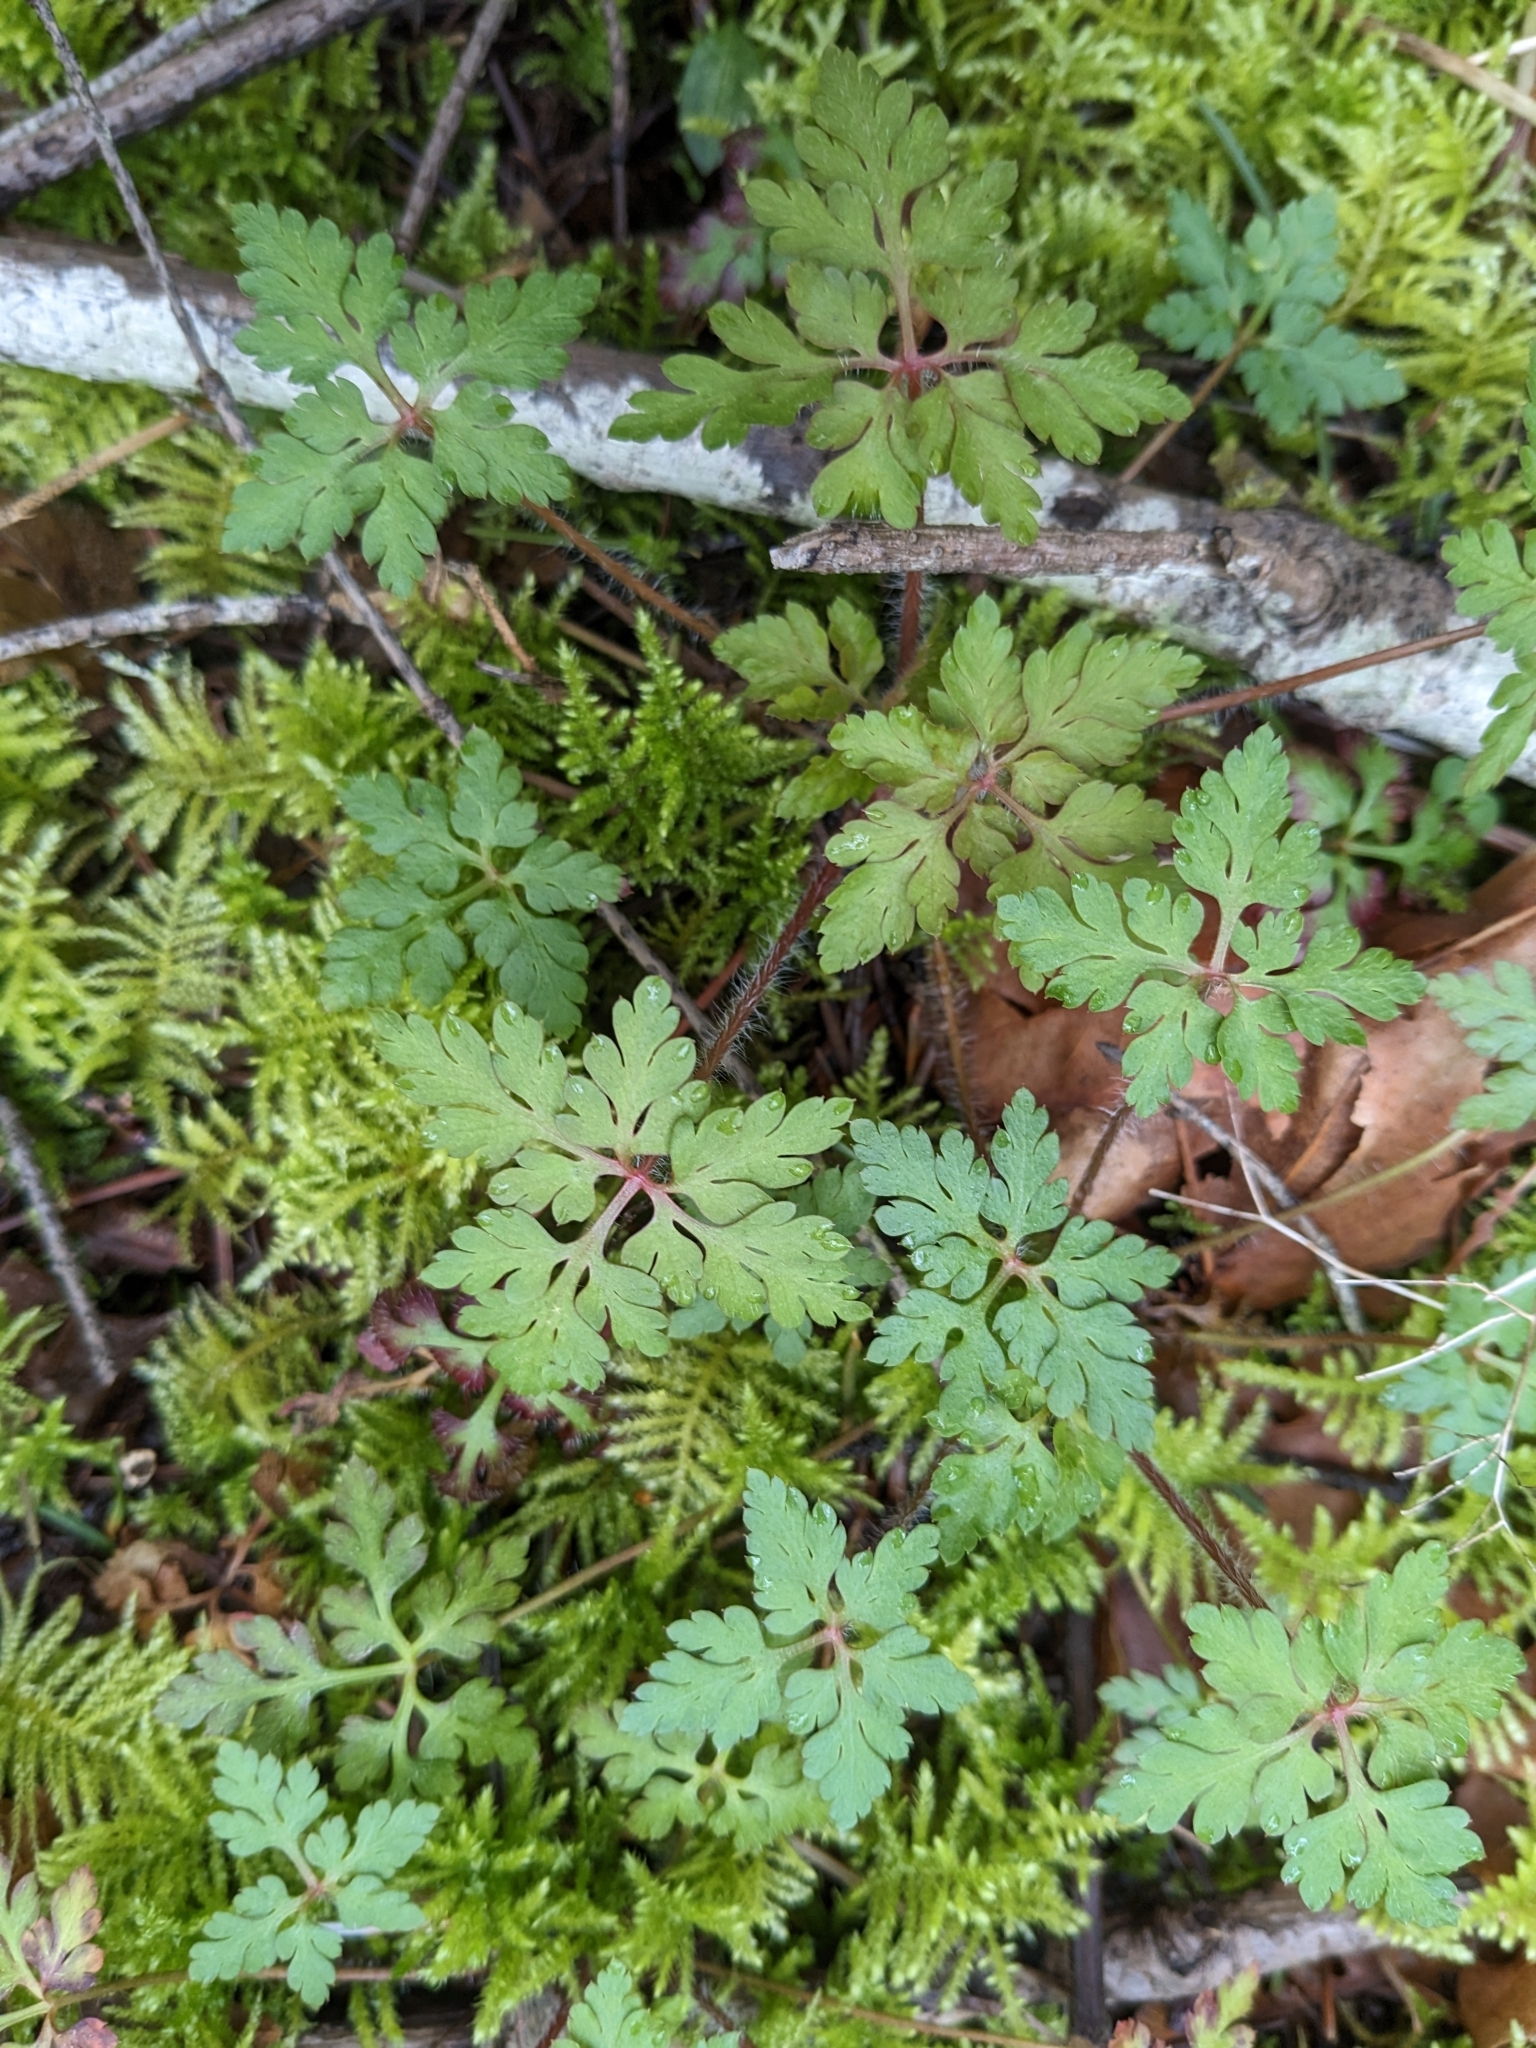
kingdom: Plantae
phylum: Tracheophyta
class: Magnoliopsida
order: Geraniales
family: Geraniaceae
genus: Geranium
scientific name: Geranium robertianum
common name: Herb-robert
